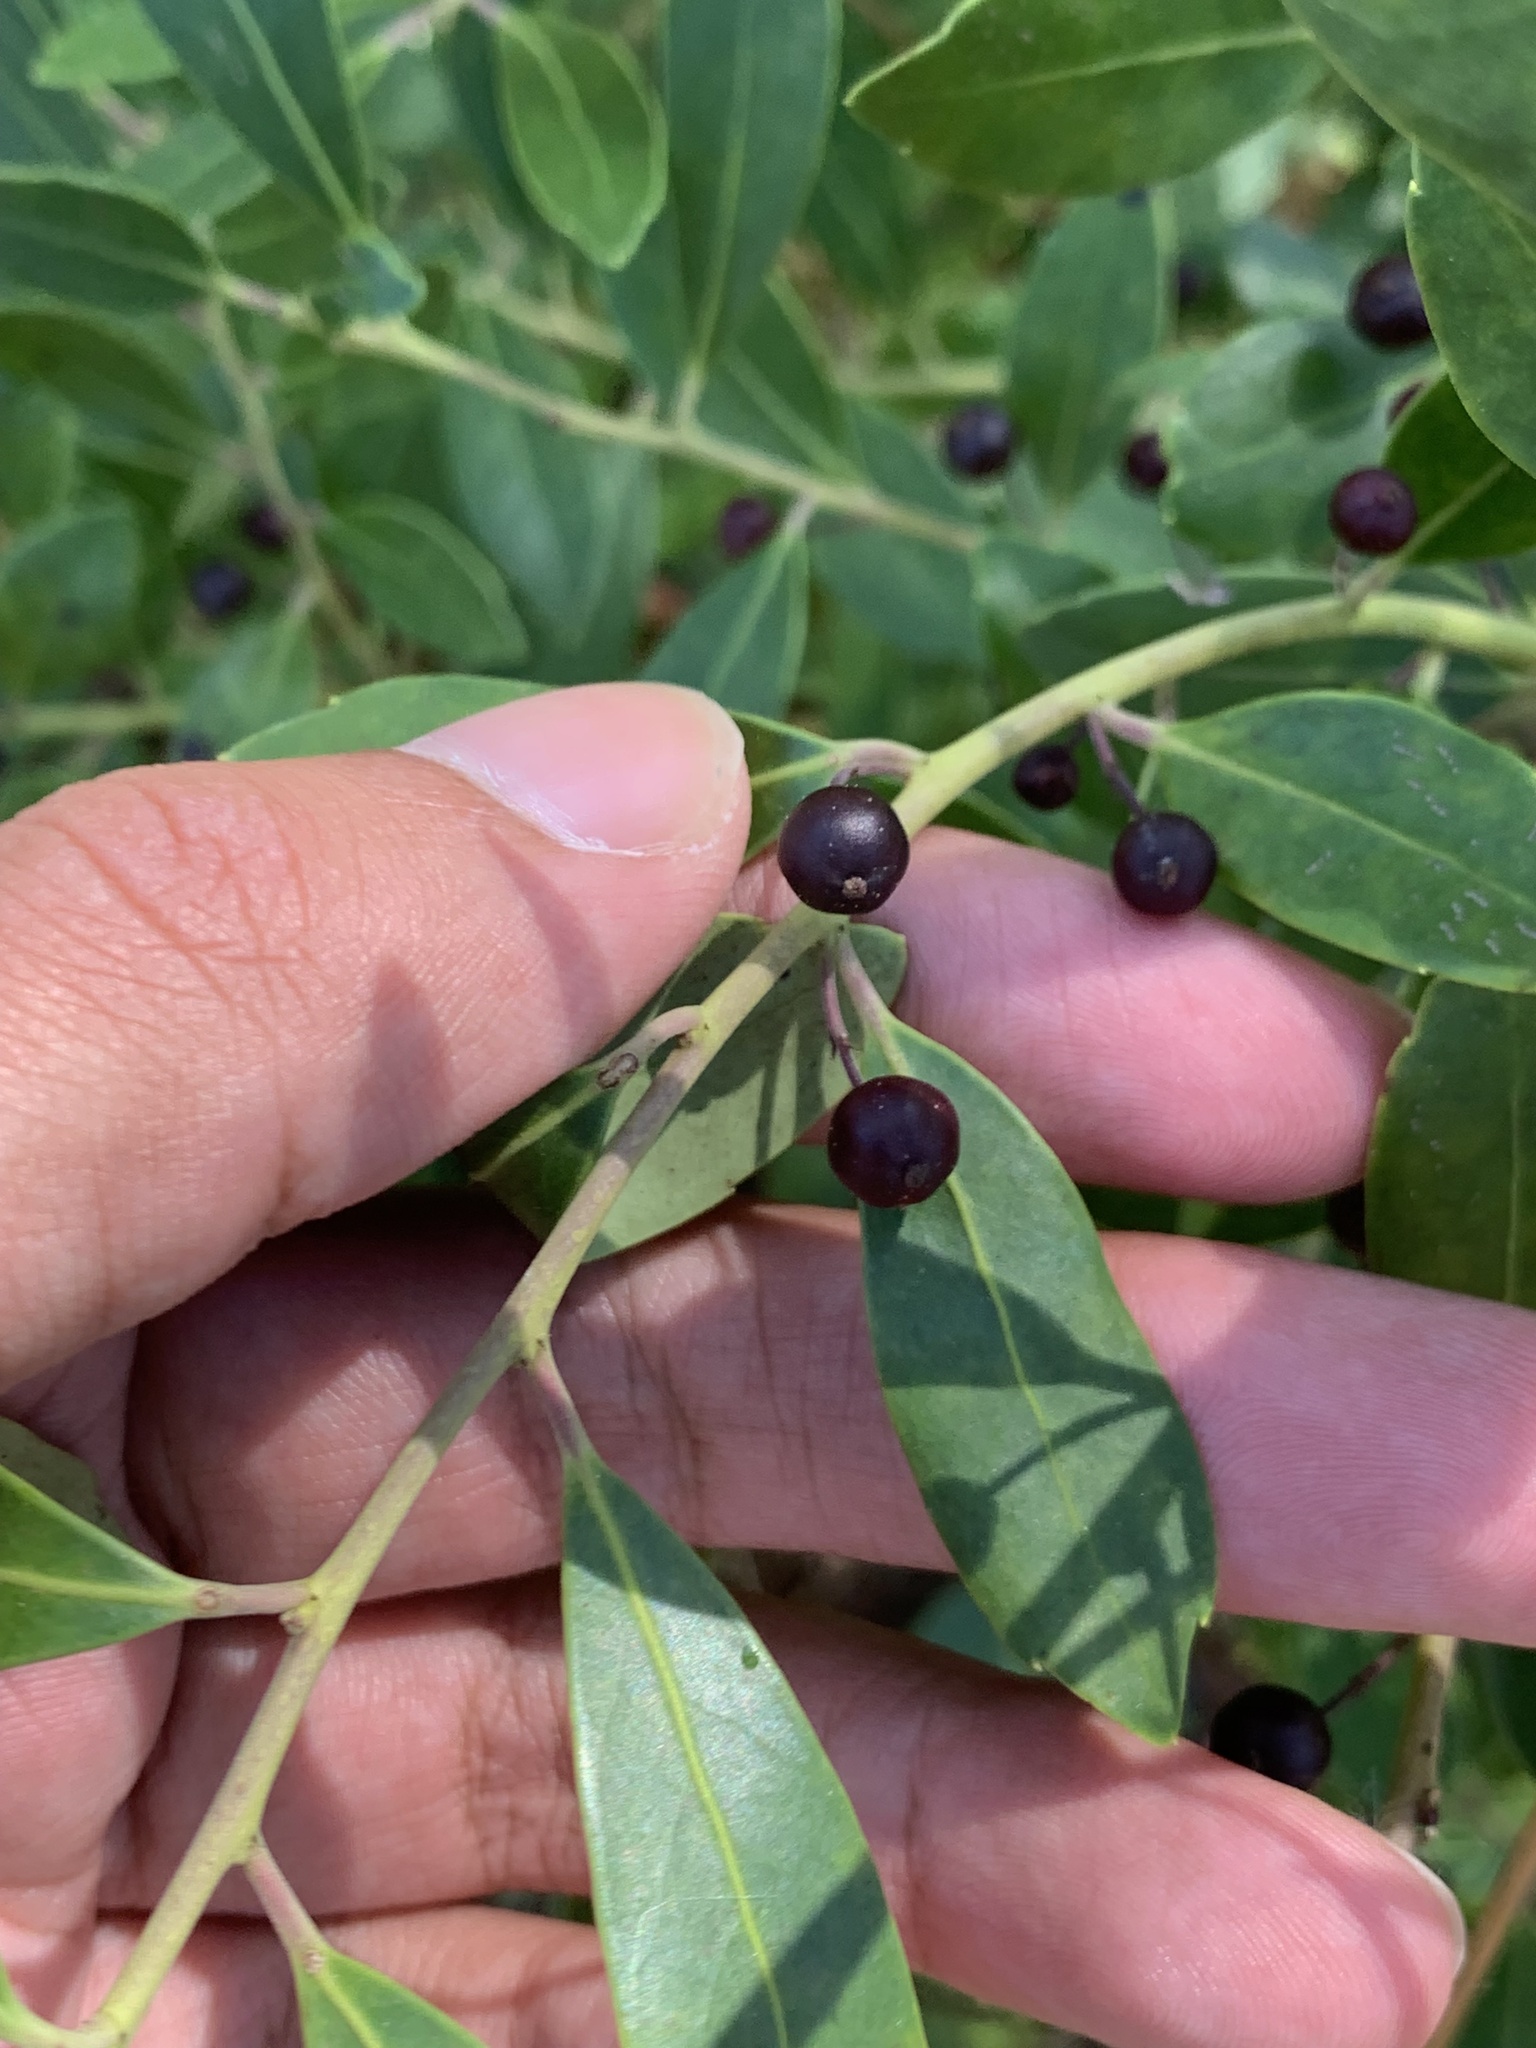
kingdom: Plantae
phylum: Tracheophyta
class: Magnoliopsida
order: Aquifoliales
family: Aquifoliaceae
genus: Ilex
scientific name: Ilex glabra
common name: Bitter gallberry
